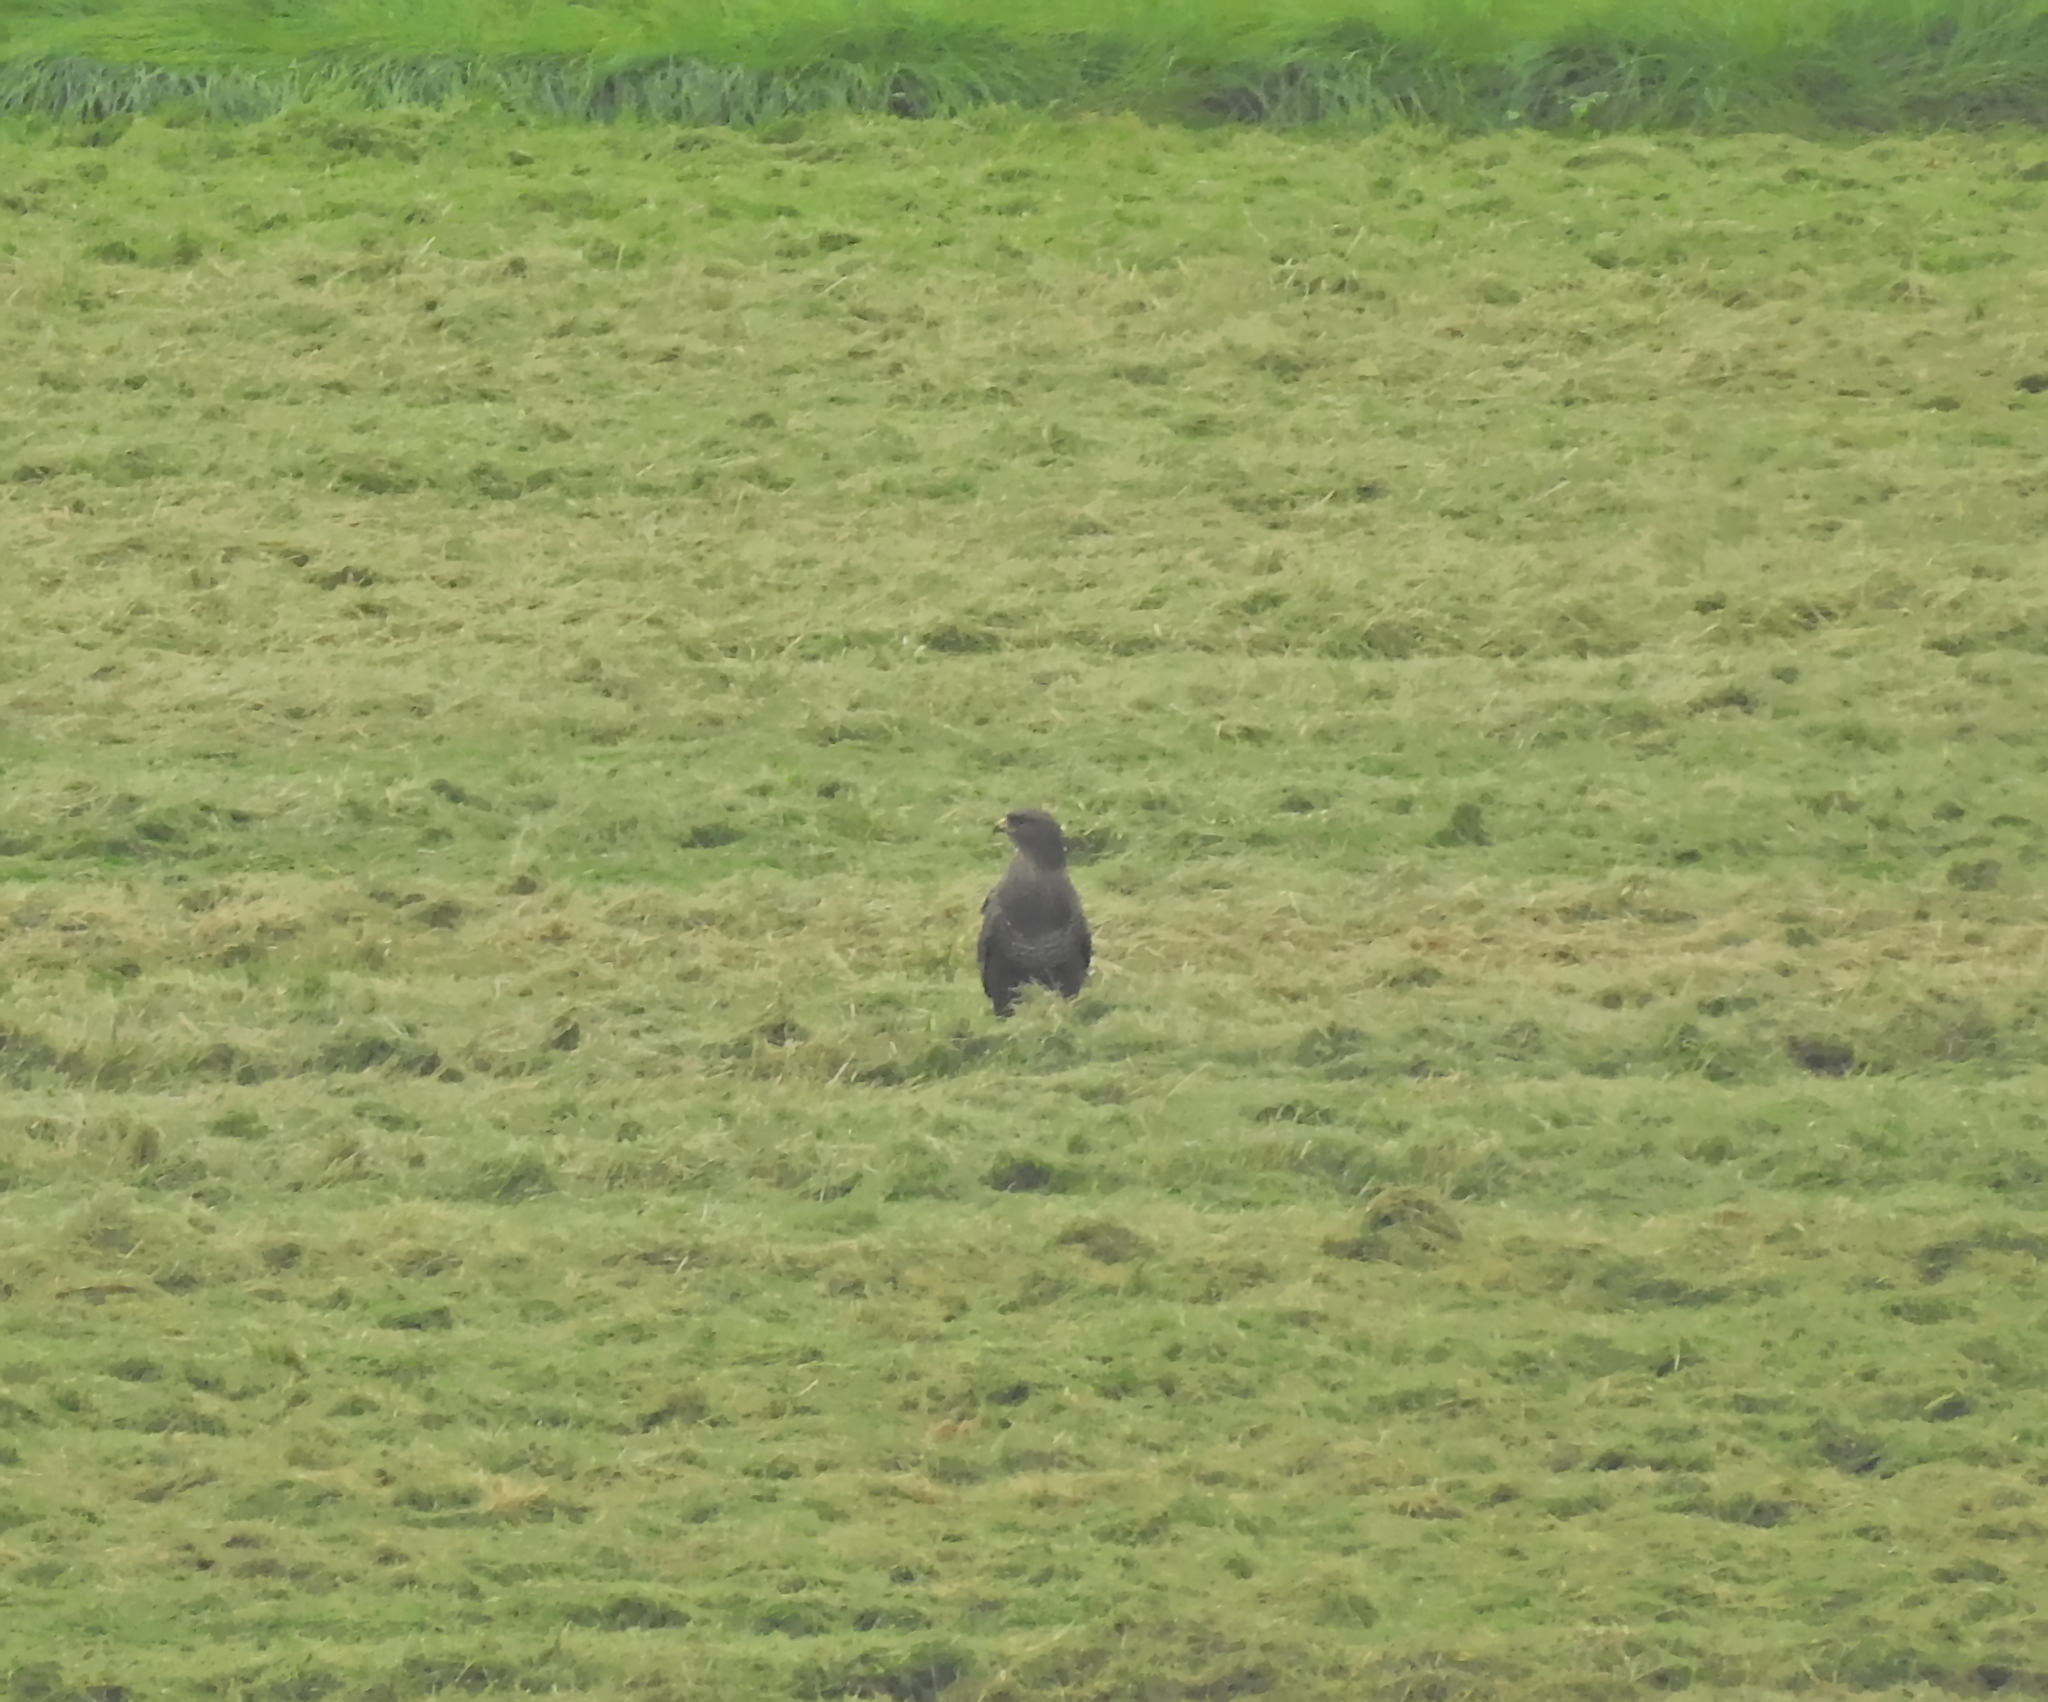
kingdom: Animalia
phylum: Chordata
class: Aves
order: Accipitriformes
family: Accipitridae
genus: Buteo
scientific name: Buteo buteo
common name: Common buzzard
